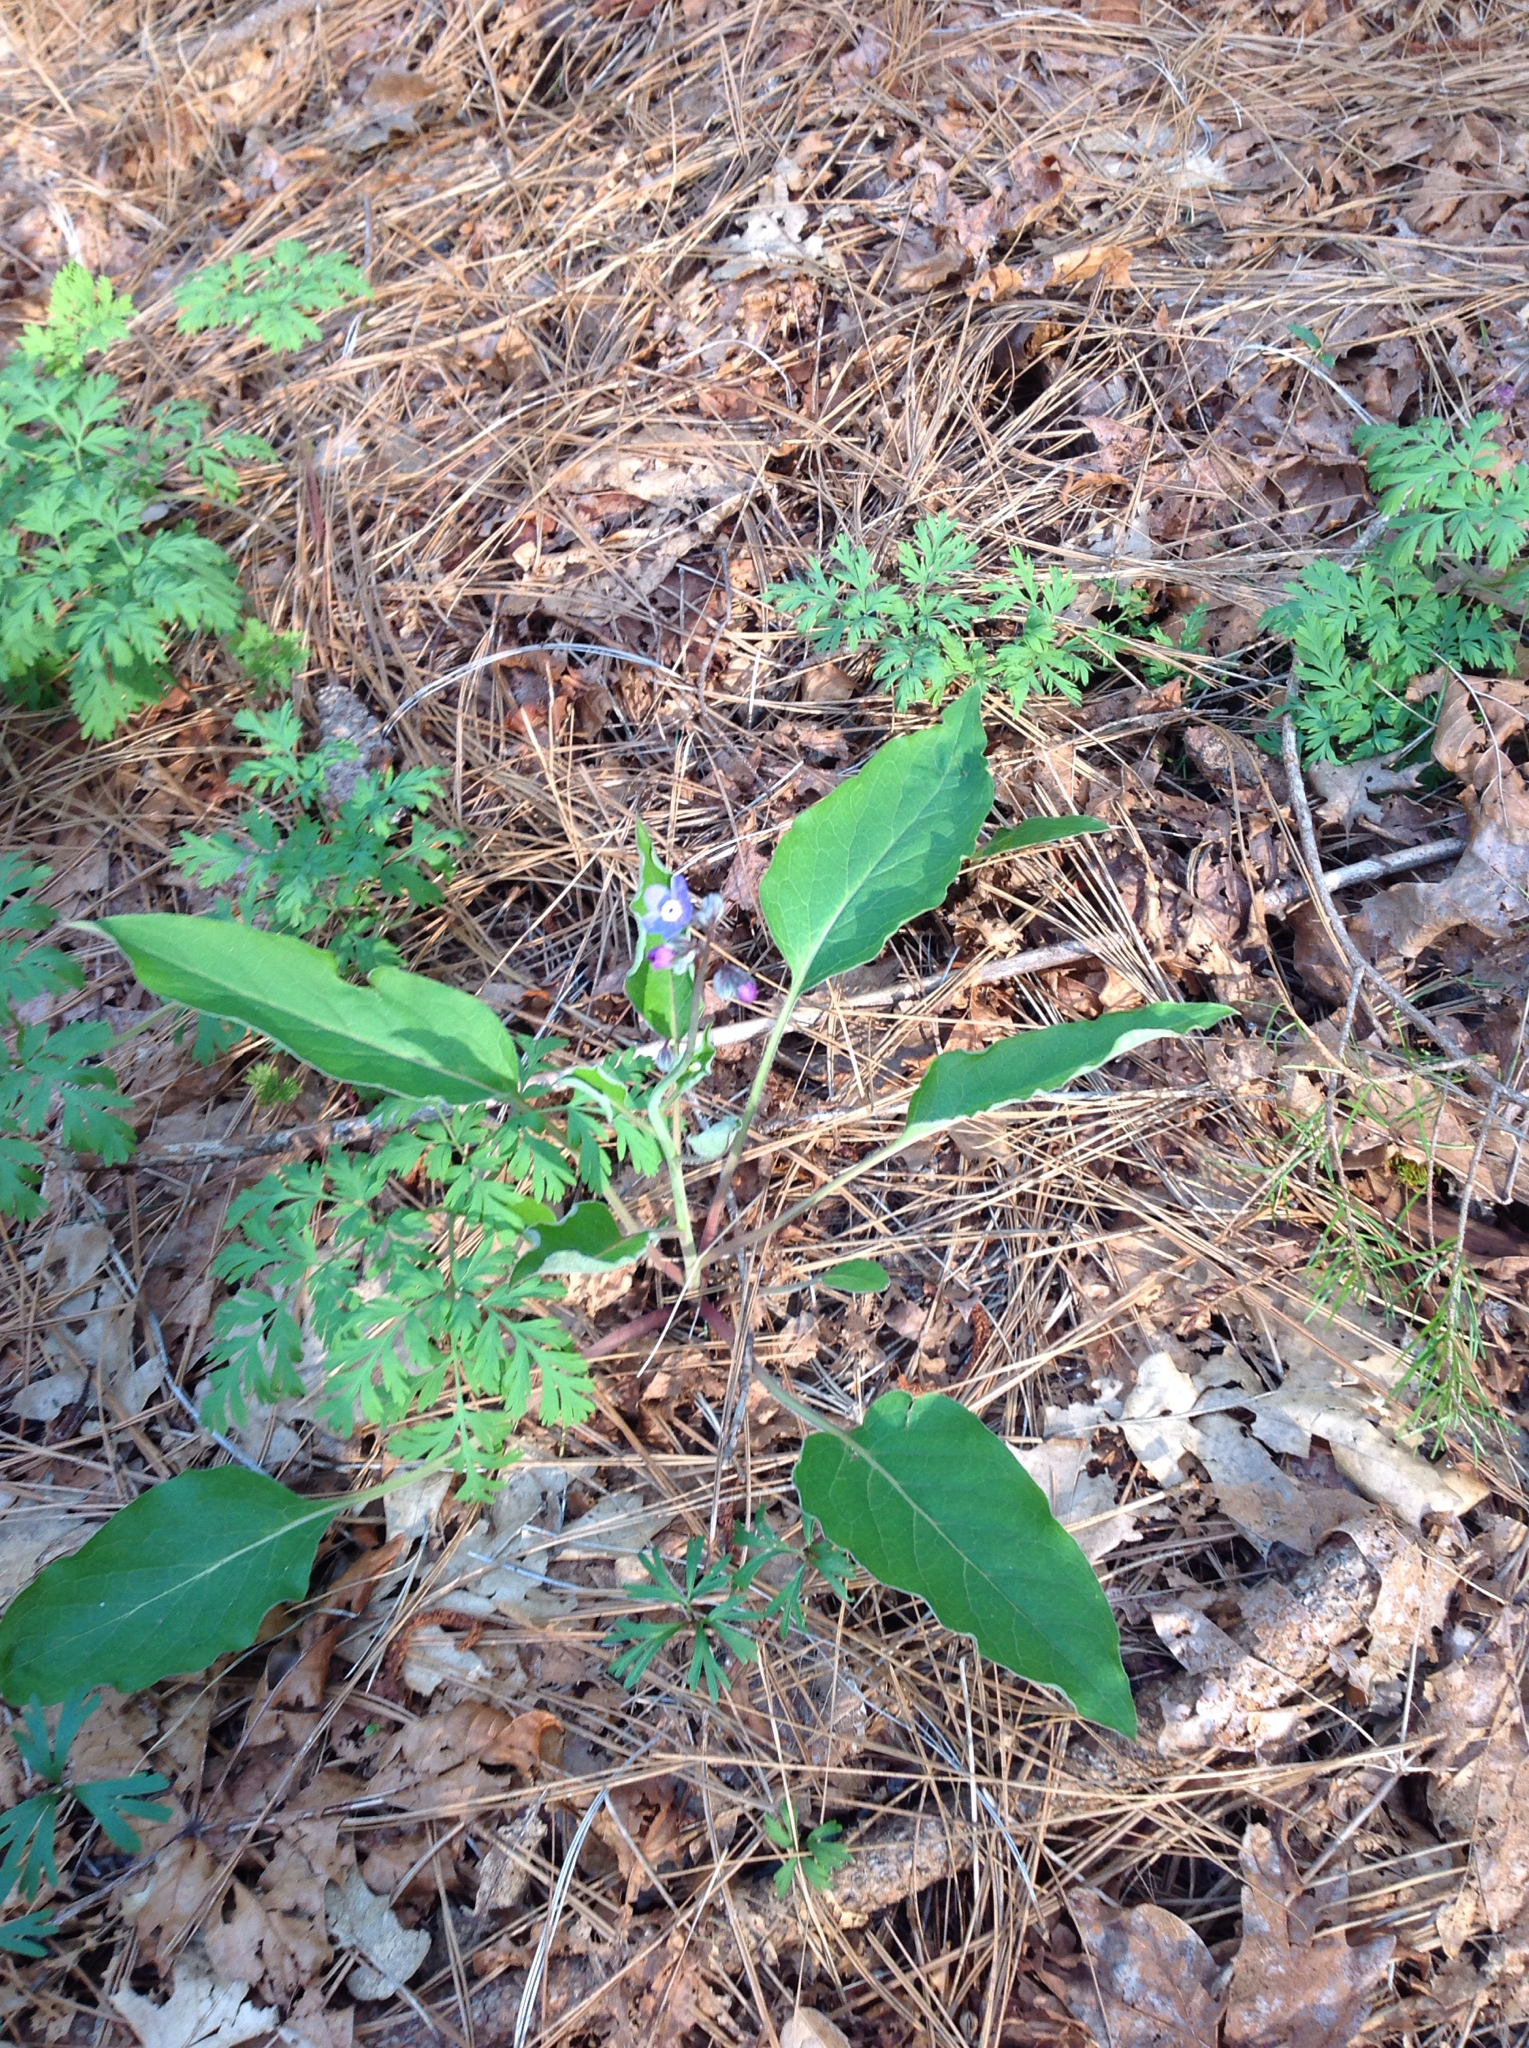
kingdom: Plantae
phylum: Tracheophyta
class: Magnoliopsida
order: Boraginales
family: Boraginaceae
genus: Adelinia
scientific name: Adelinia grande
